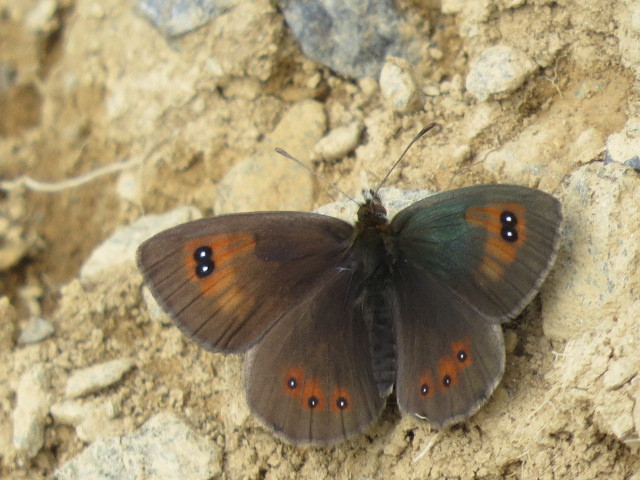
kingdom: Animalia
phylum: Arthropoda
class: Insecta
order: Lepidoptera
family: Nymphalidae
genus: Erebia
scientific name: Erebia cassioides
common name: Common brassy ringlet
